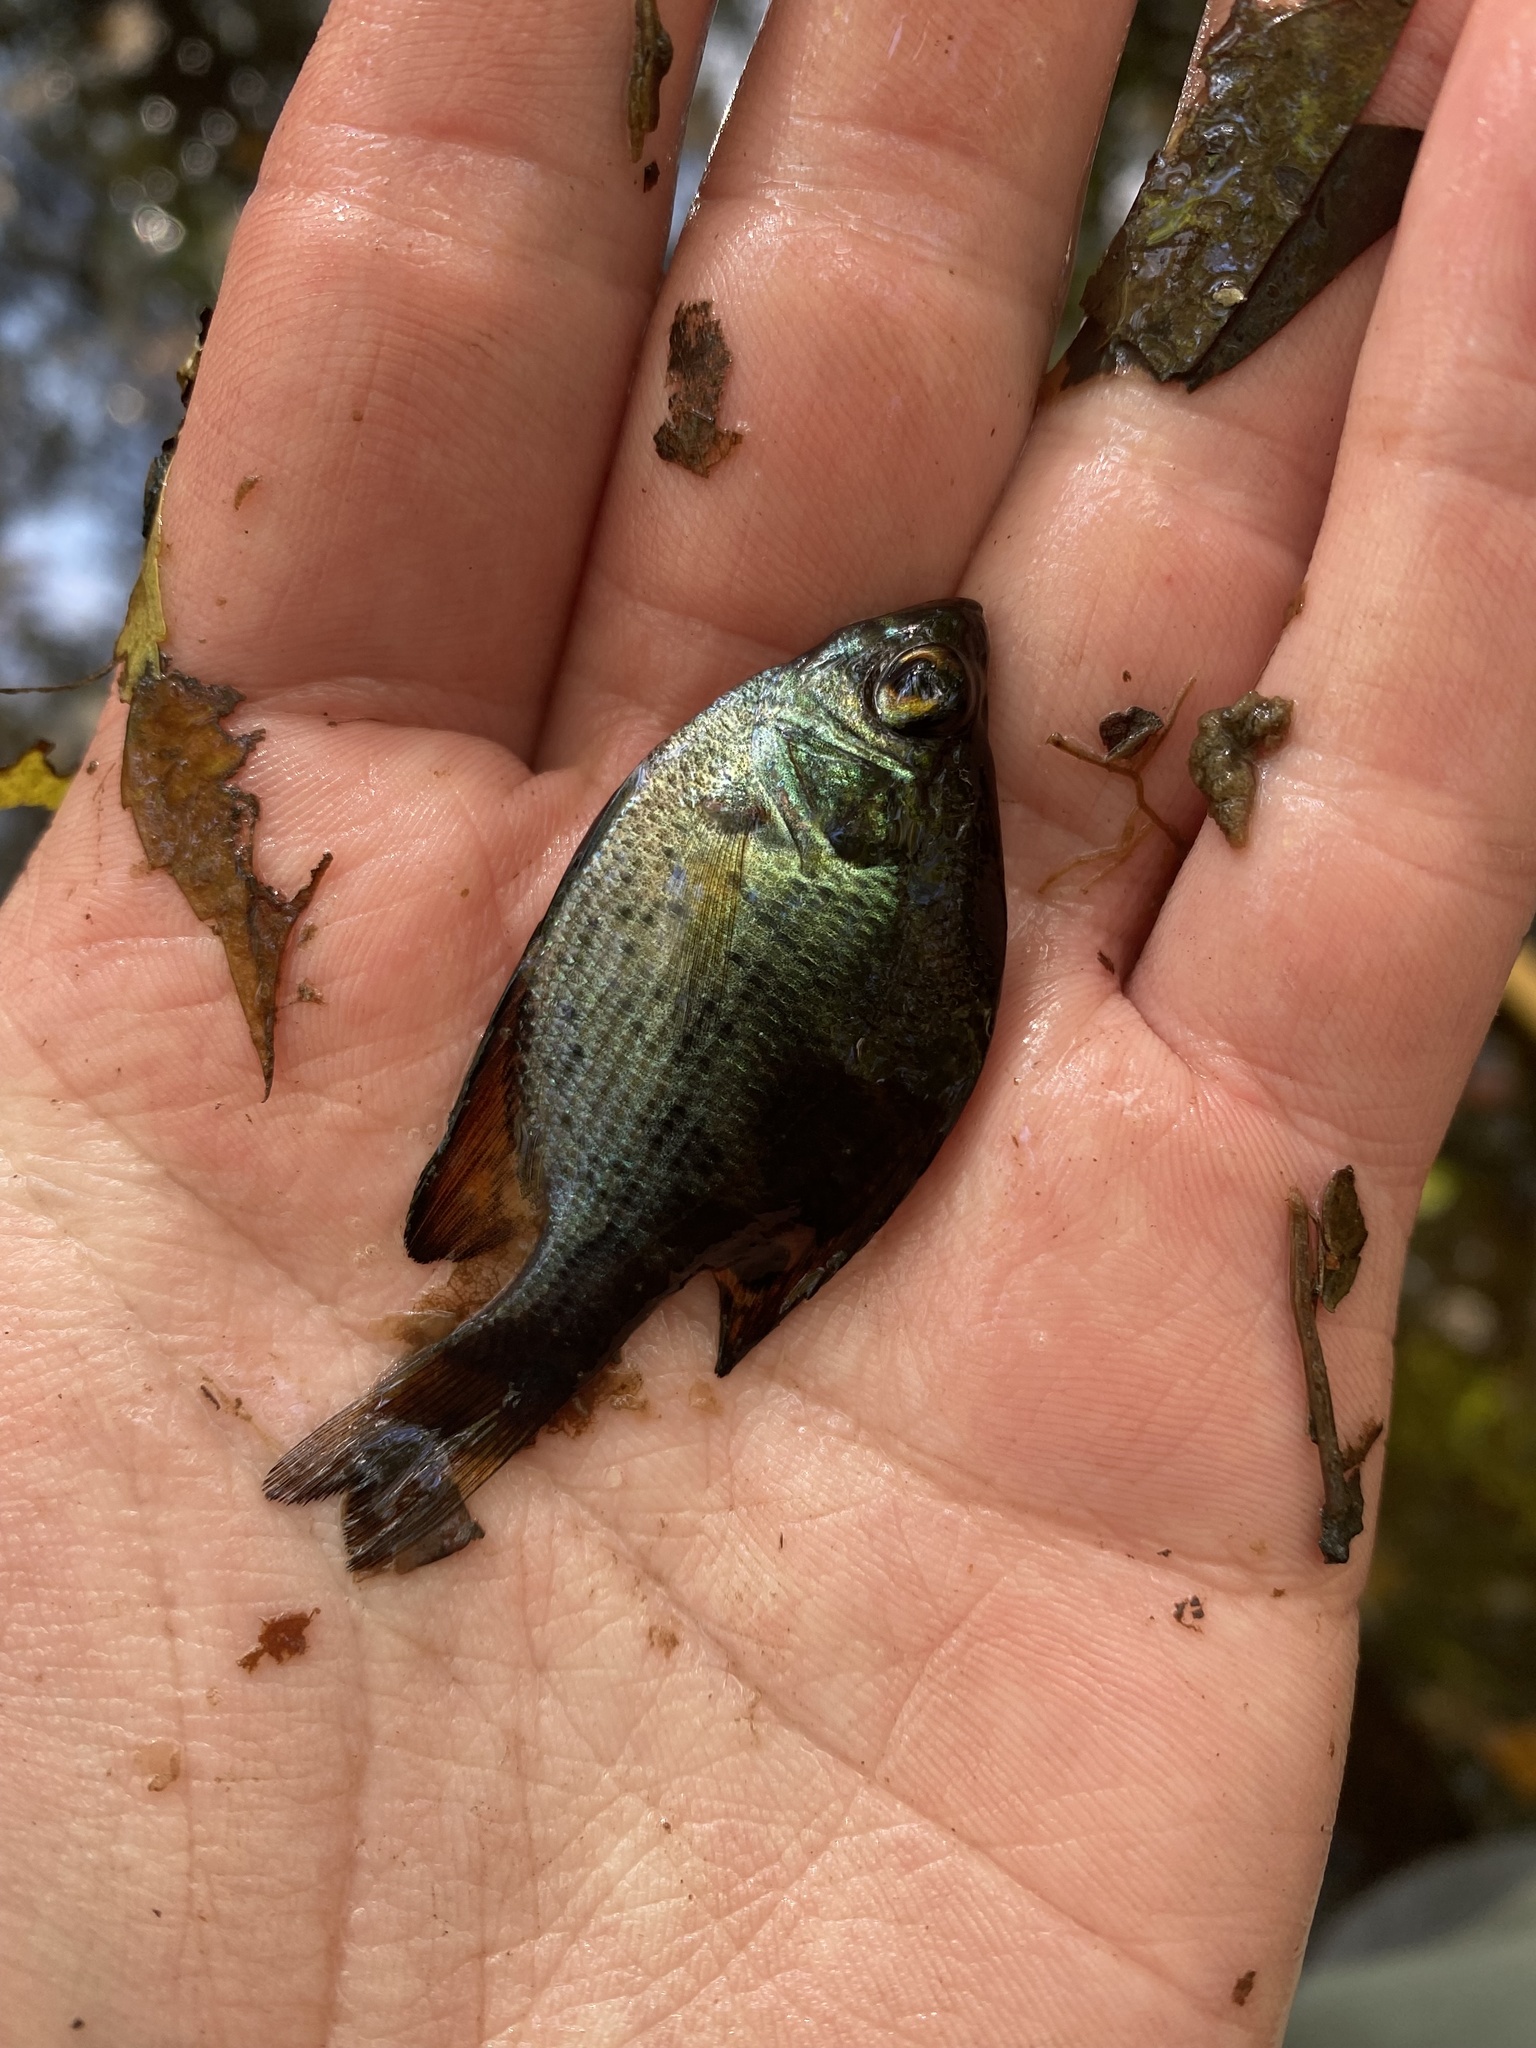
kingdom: Animalia
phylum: Chordata
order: Perciformes
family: Centrarchidae
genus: Centrarchus
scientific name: Centrarchus macropterus
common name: Flier
